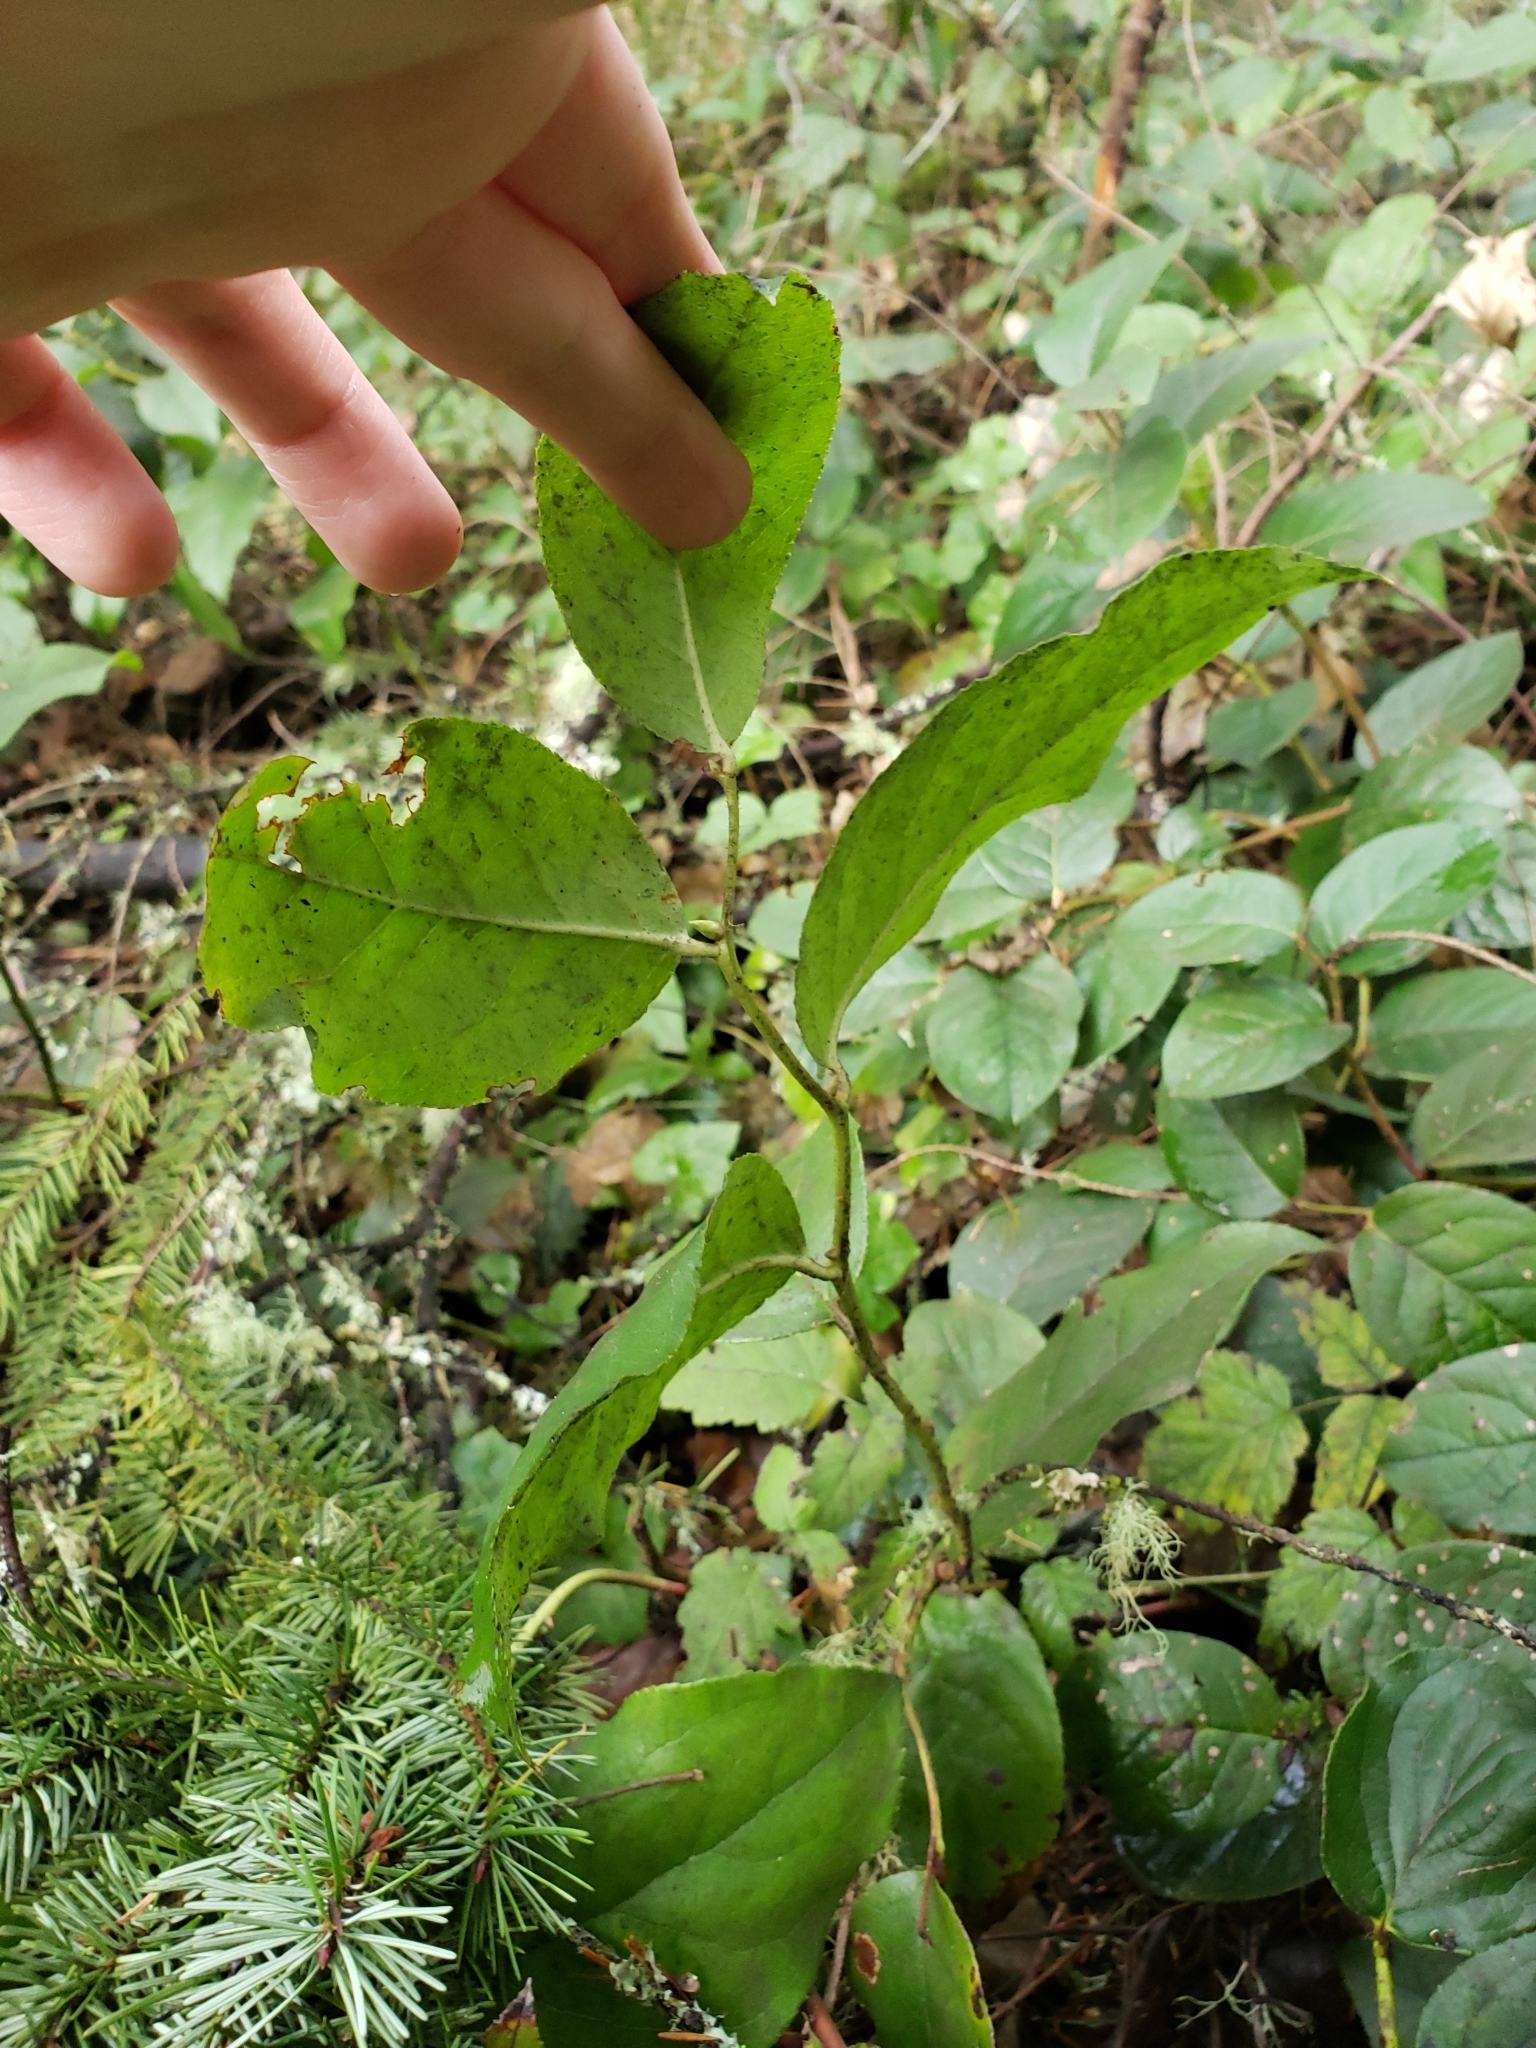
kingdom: Plantae
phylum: Tracheophyta
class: Magnoliopsida
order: Ericales
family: Ericaceae
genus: Gaultheria
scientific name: Gaultheria shallon
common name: Shallon
